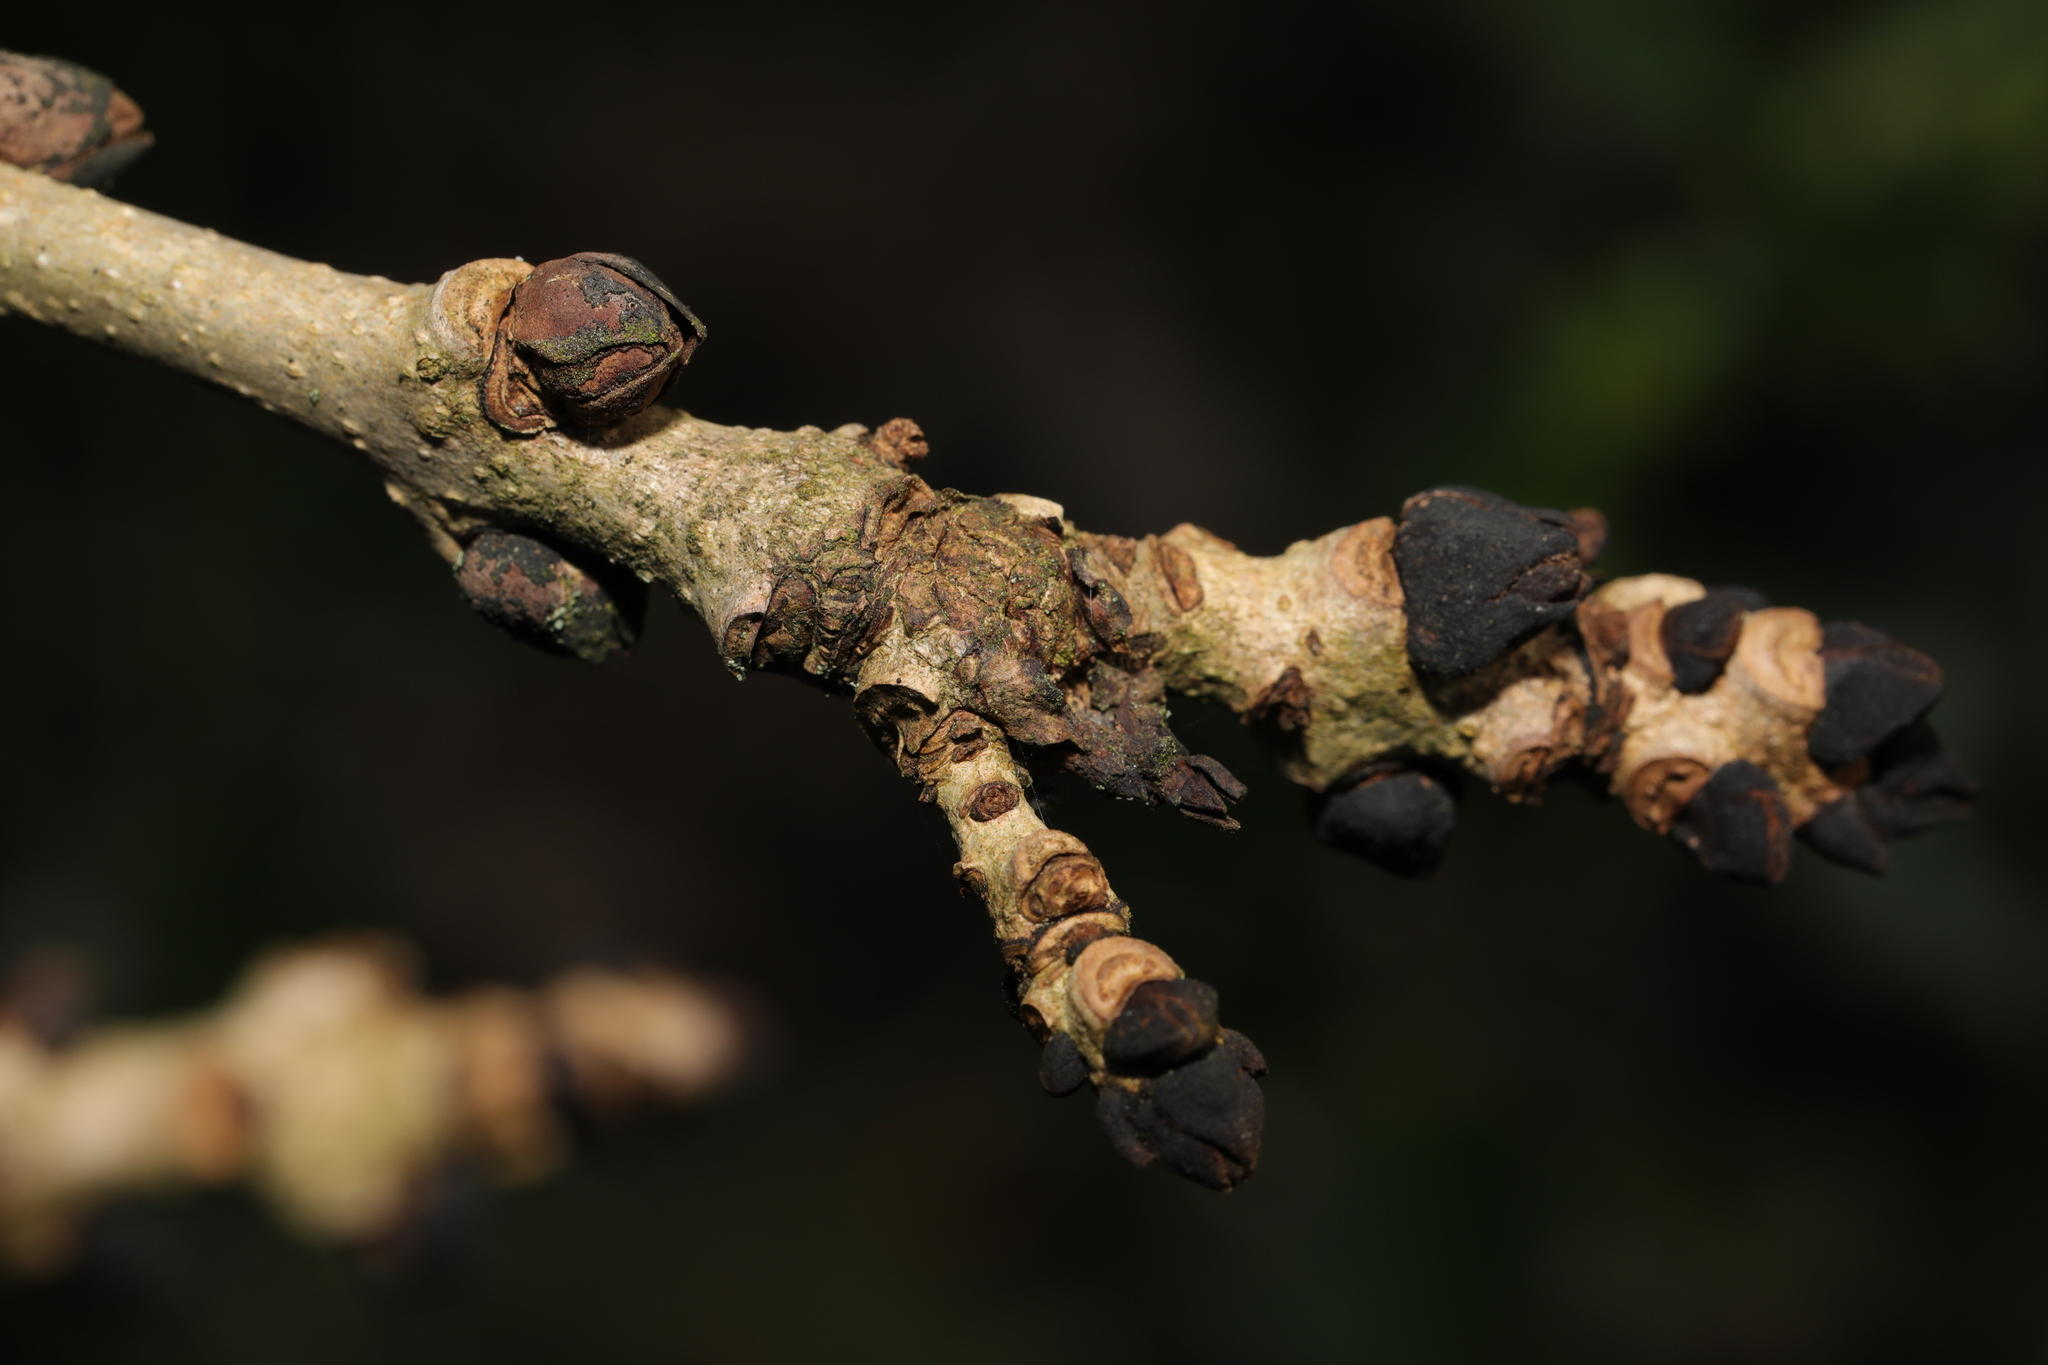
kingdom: Plantae
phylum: Tracheophyta
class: Magnoliopsida
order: Lamiales
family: Oleaceae
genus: Fraxinus
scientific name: Fraxinus excelsior
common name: European ash
